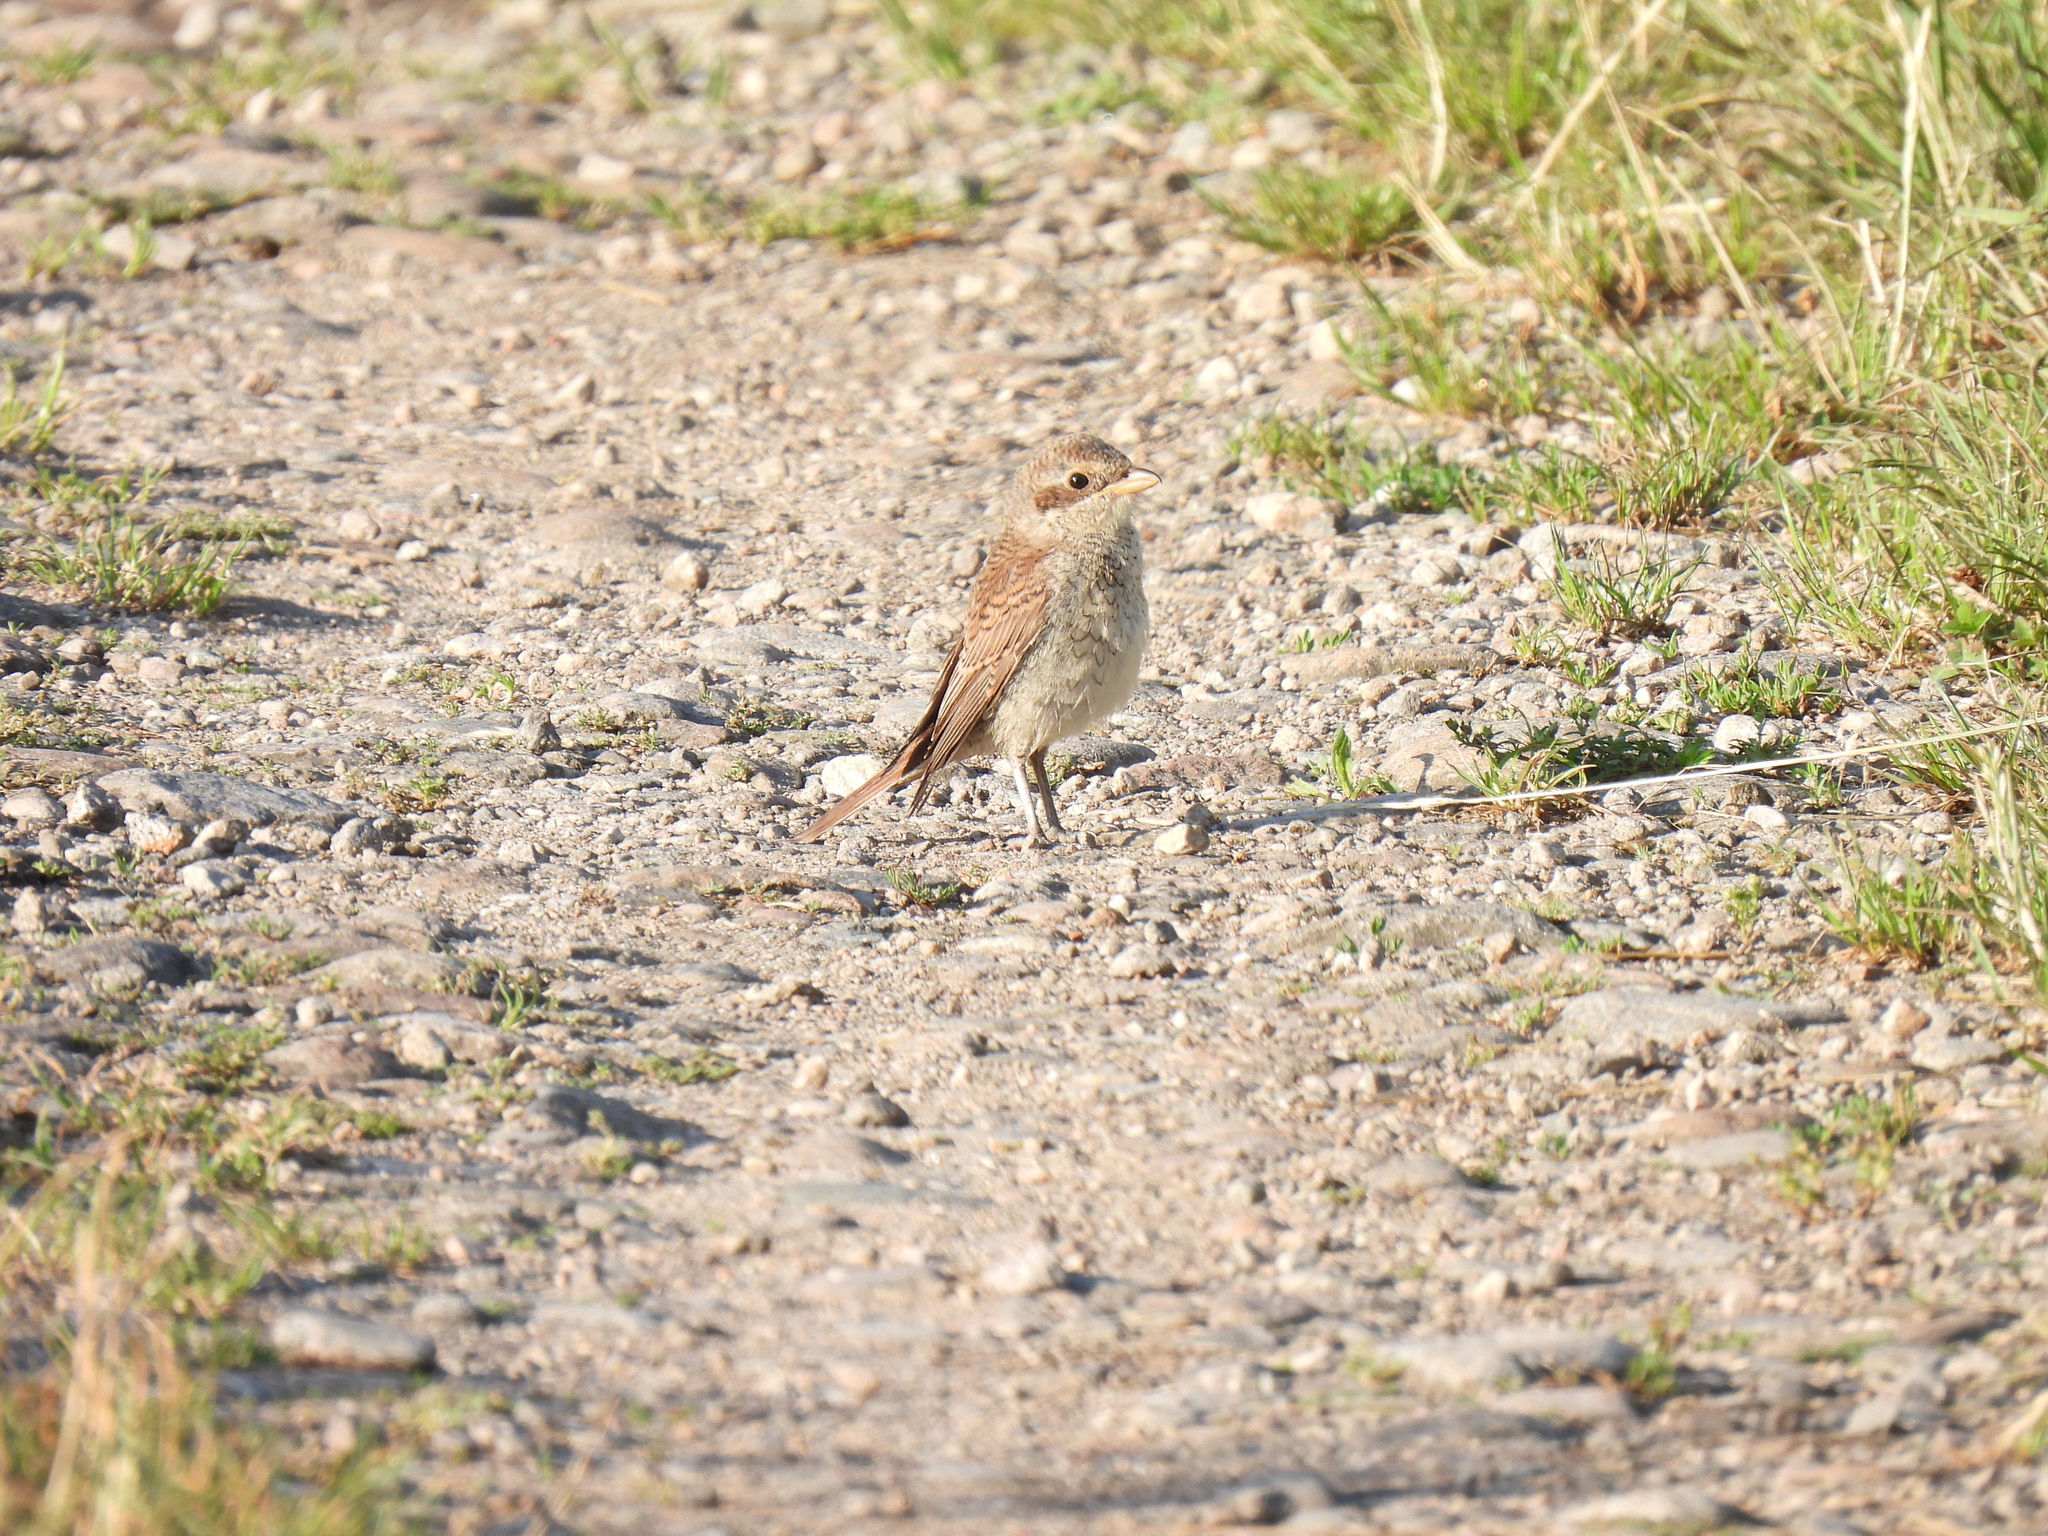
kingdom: Animalia
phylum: Chordata
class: Aves
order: Passeriformes
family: Laniidae
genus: Lanius
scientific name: Lanius collurio
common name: Red-backed shrike
